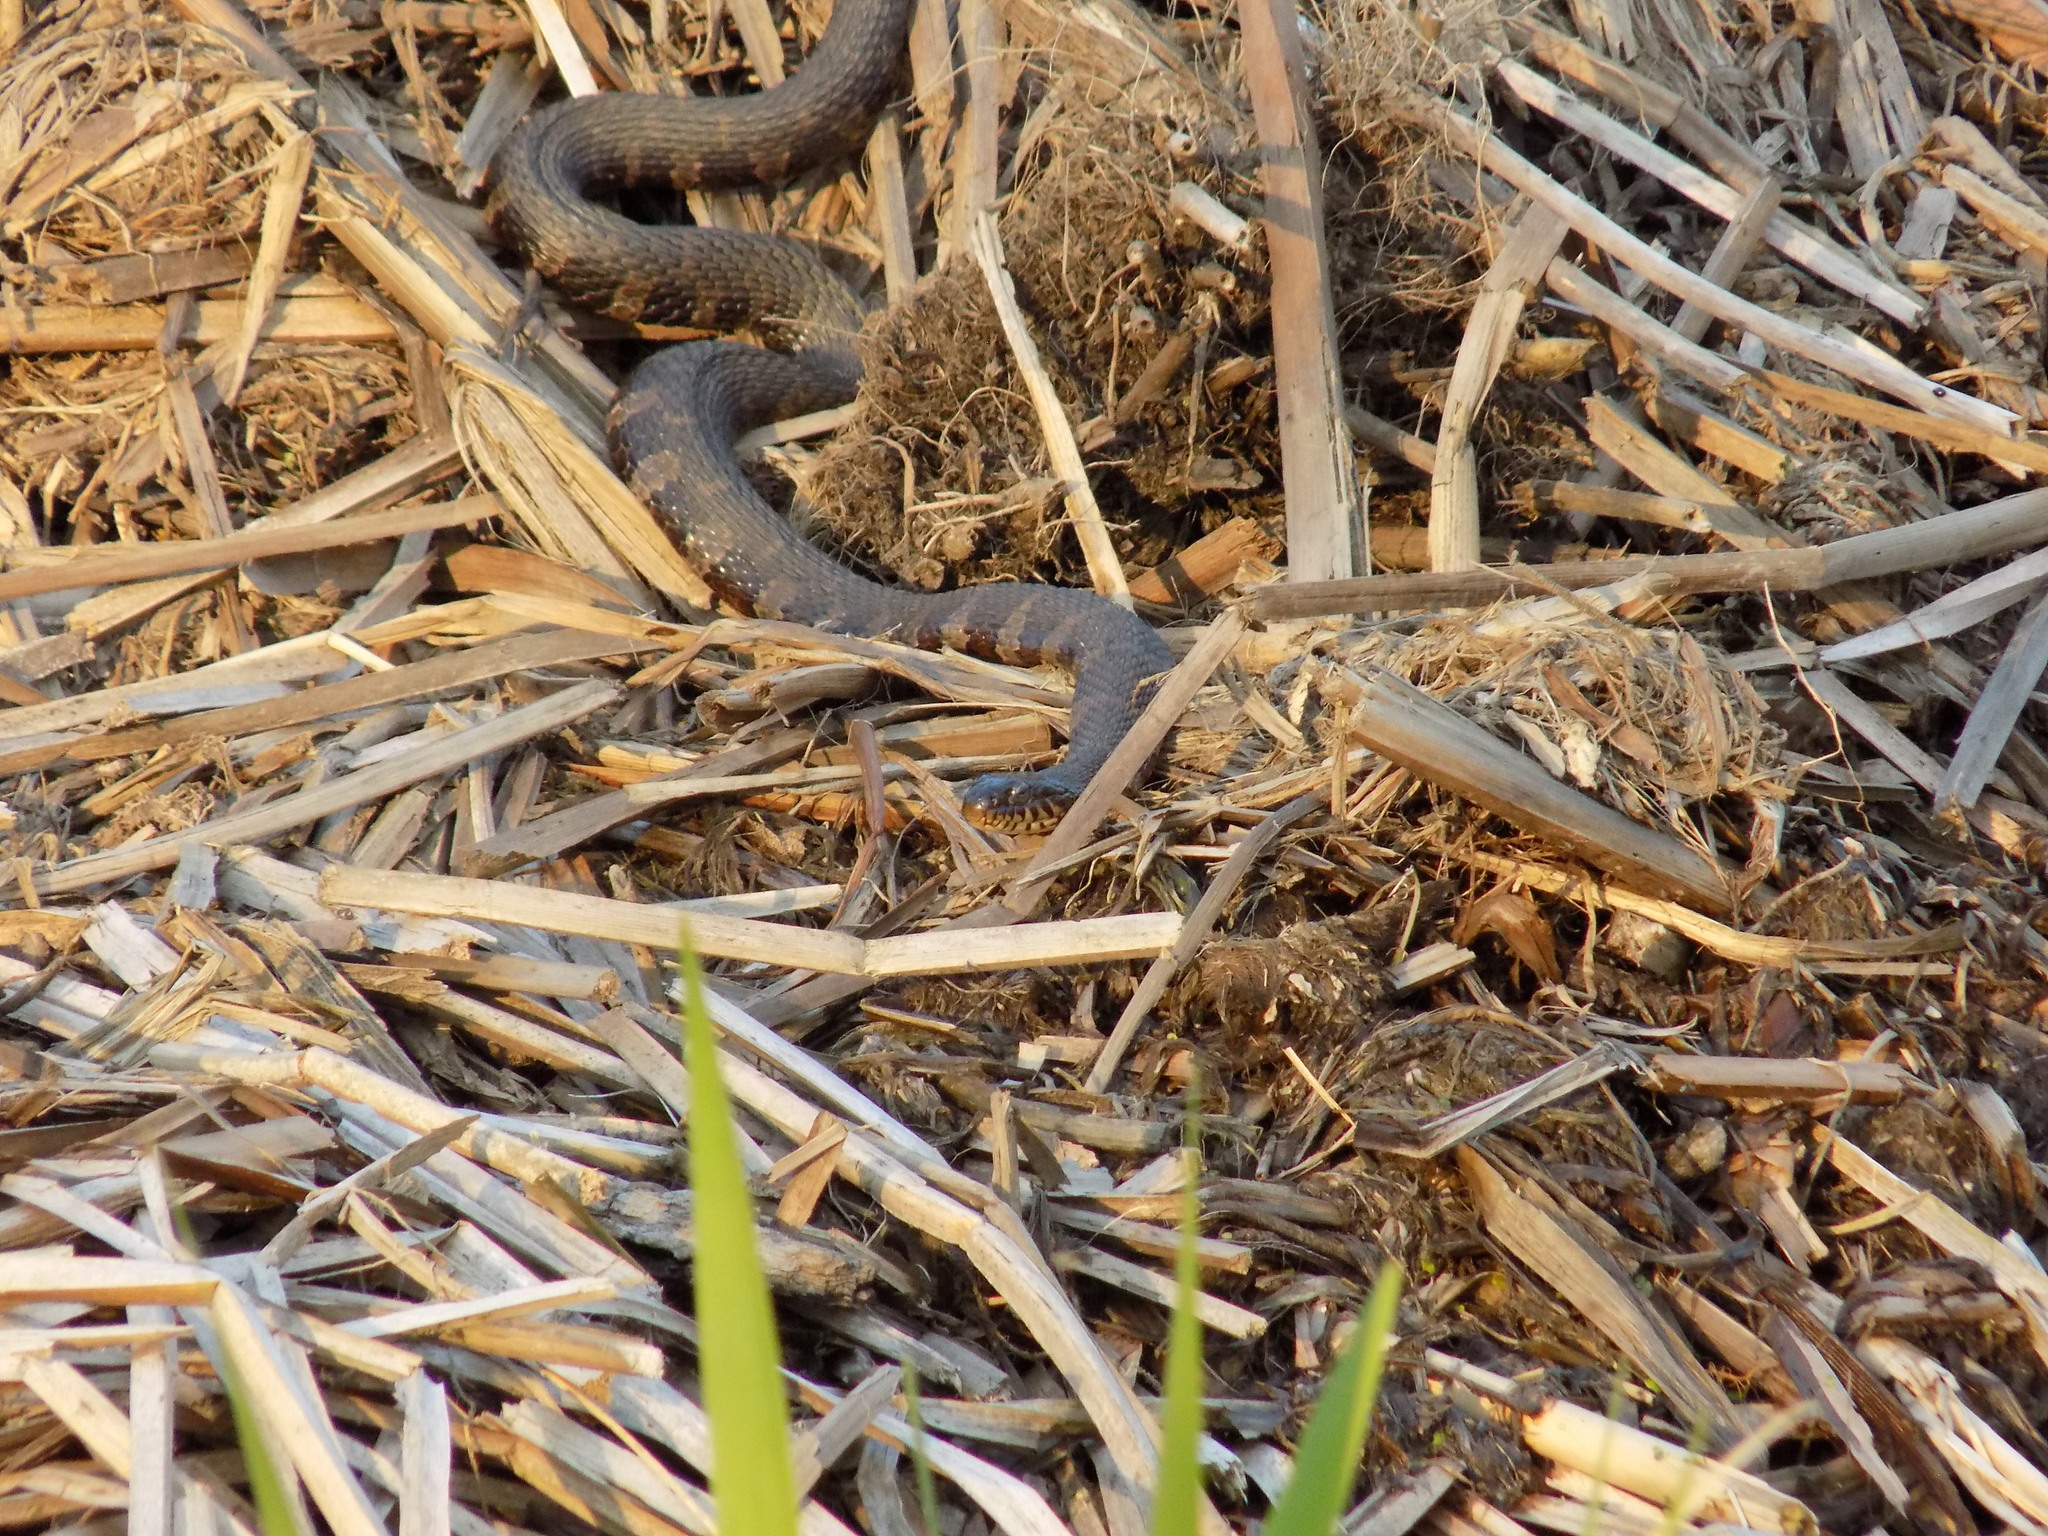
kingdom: Animalia
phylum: Chordata
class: Squamata
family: Colubridae
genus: Nerodia
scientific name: Nerodia sipedon
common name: Northern water snake
